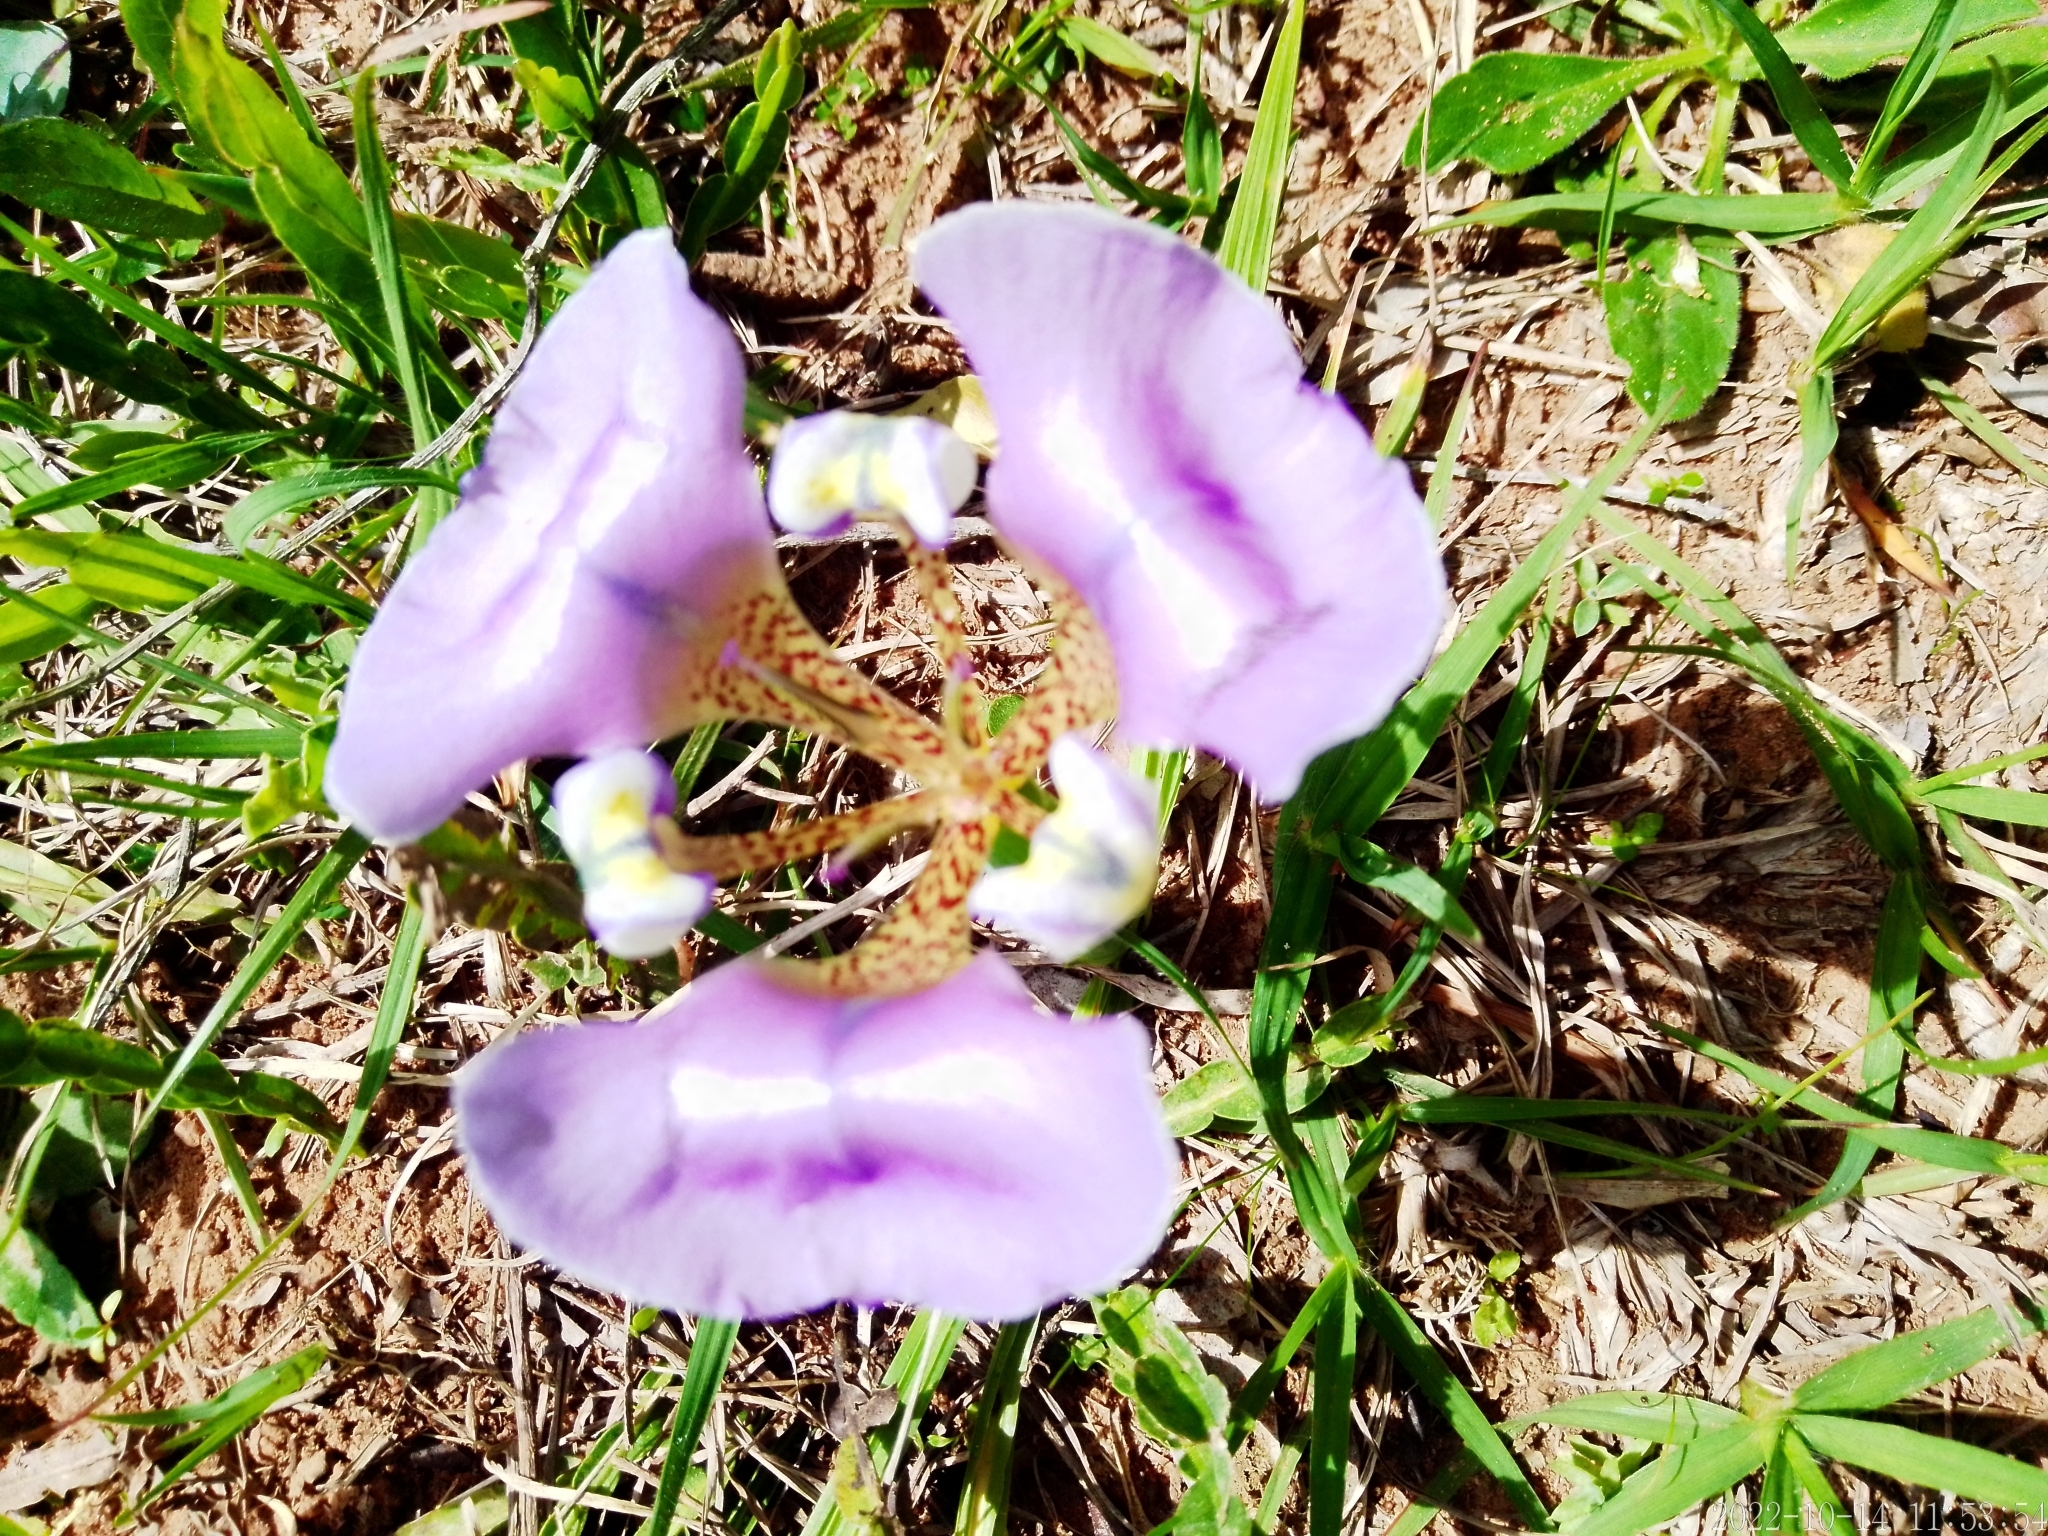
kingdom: Plantae
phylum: Tracheophyta
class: Liliopsida
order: Asparagales
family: Iridaceae
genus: Cypella
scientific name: Cypella unguiculata
